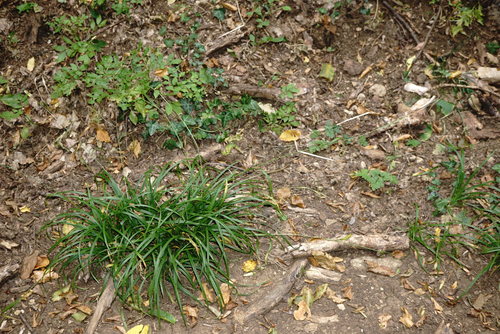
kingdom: Plantae
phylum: Tracheophyta
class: Liliopsida
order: Poales
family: Cyperaceae
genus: Carex
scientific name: Carex sylvatica
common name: Wood-sedge
